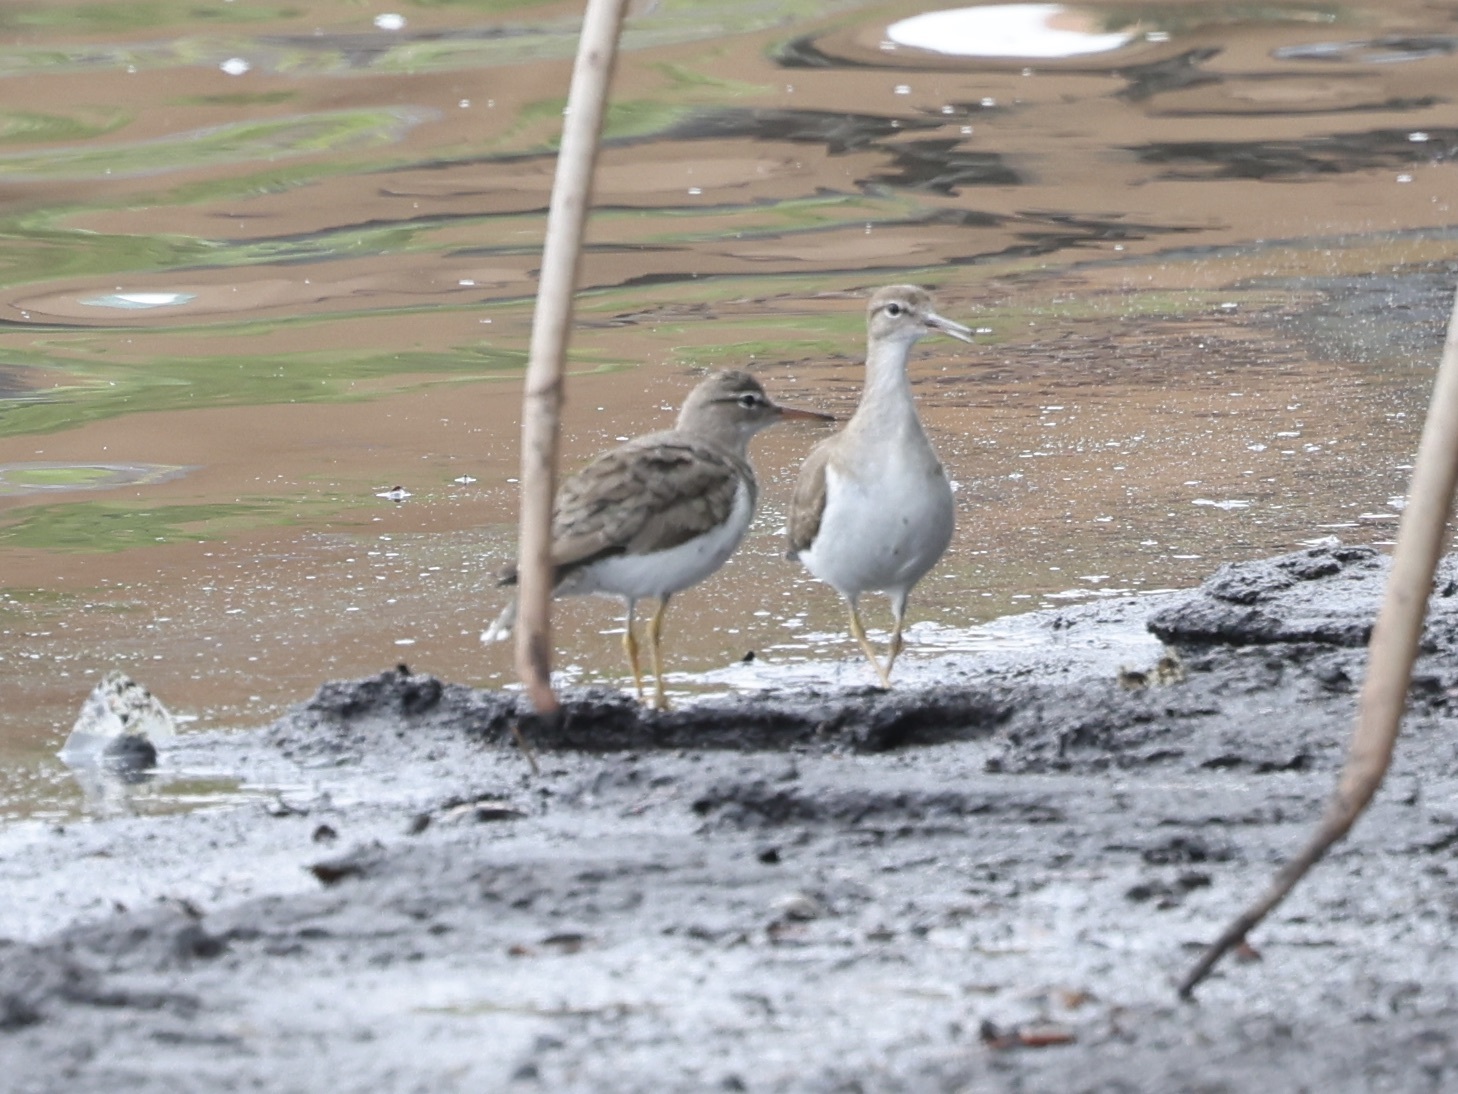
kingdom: Animalia
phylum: Chordata
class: Aves
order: Charadriiformes
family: Scolopacidae
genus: Actitis
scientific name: Actitis macularius
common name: Spotted sandpiper
